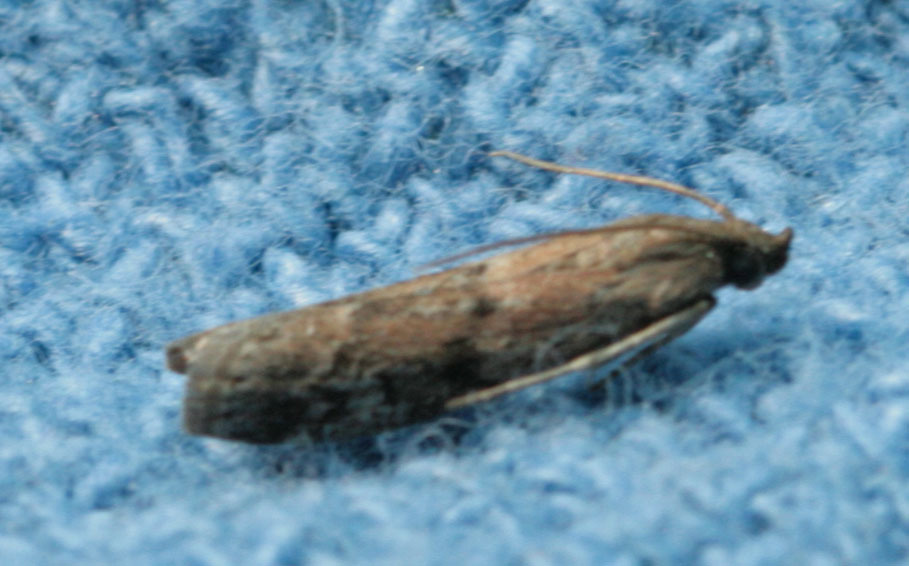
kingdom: Animalia
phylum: Arthropoda
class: Insecta
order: Lepidoptera
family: Pyralidae
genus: Vitula
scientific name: Vitula edmandsii
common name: Dried fruit moth
